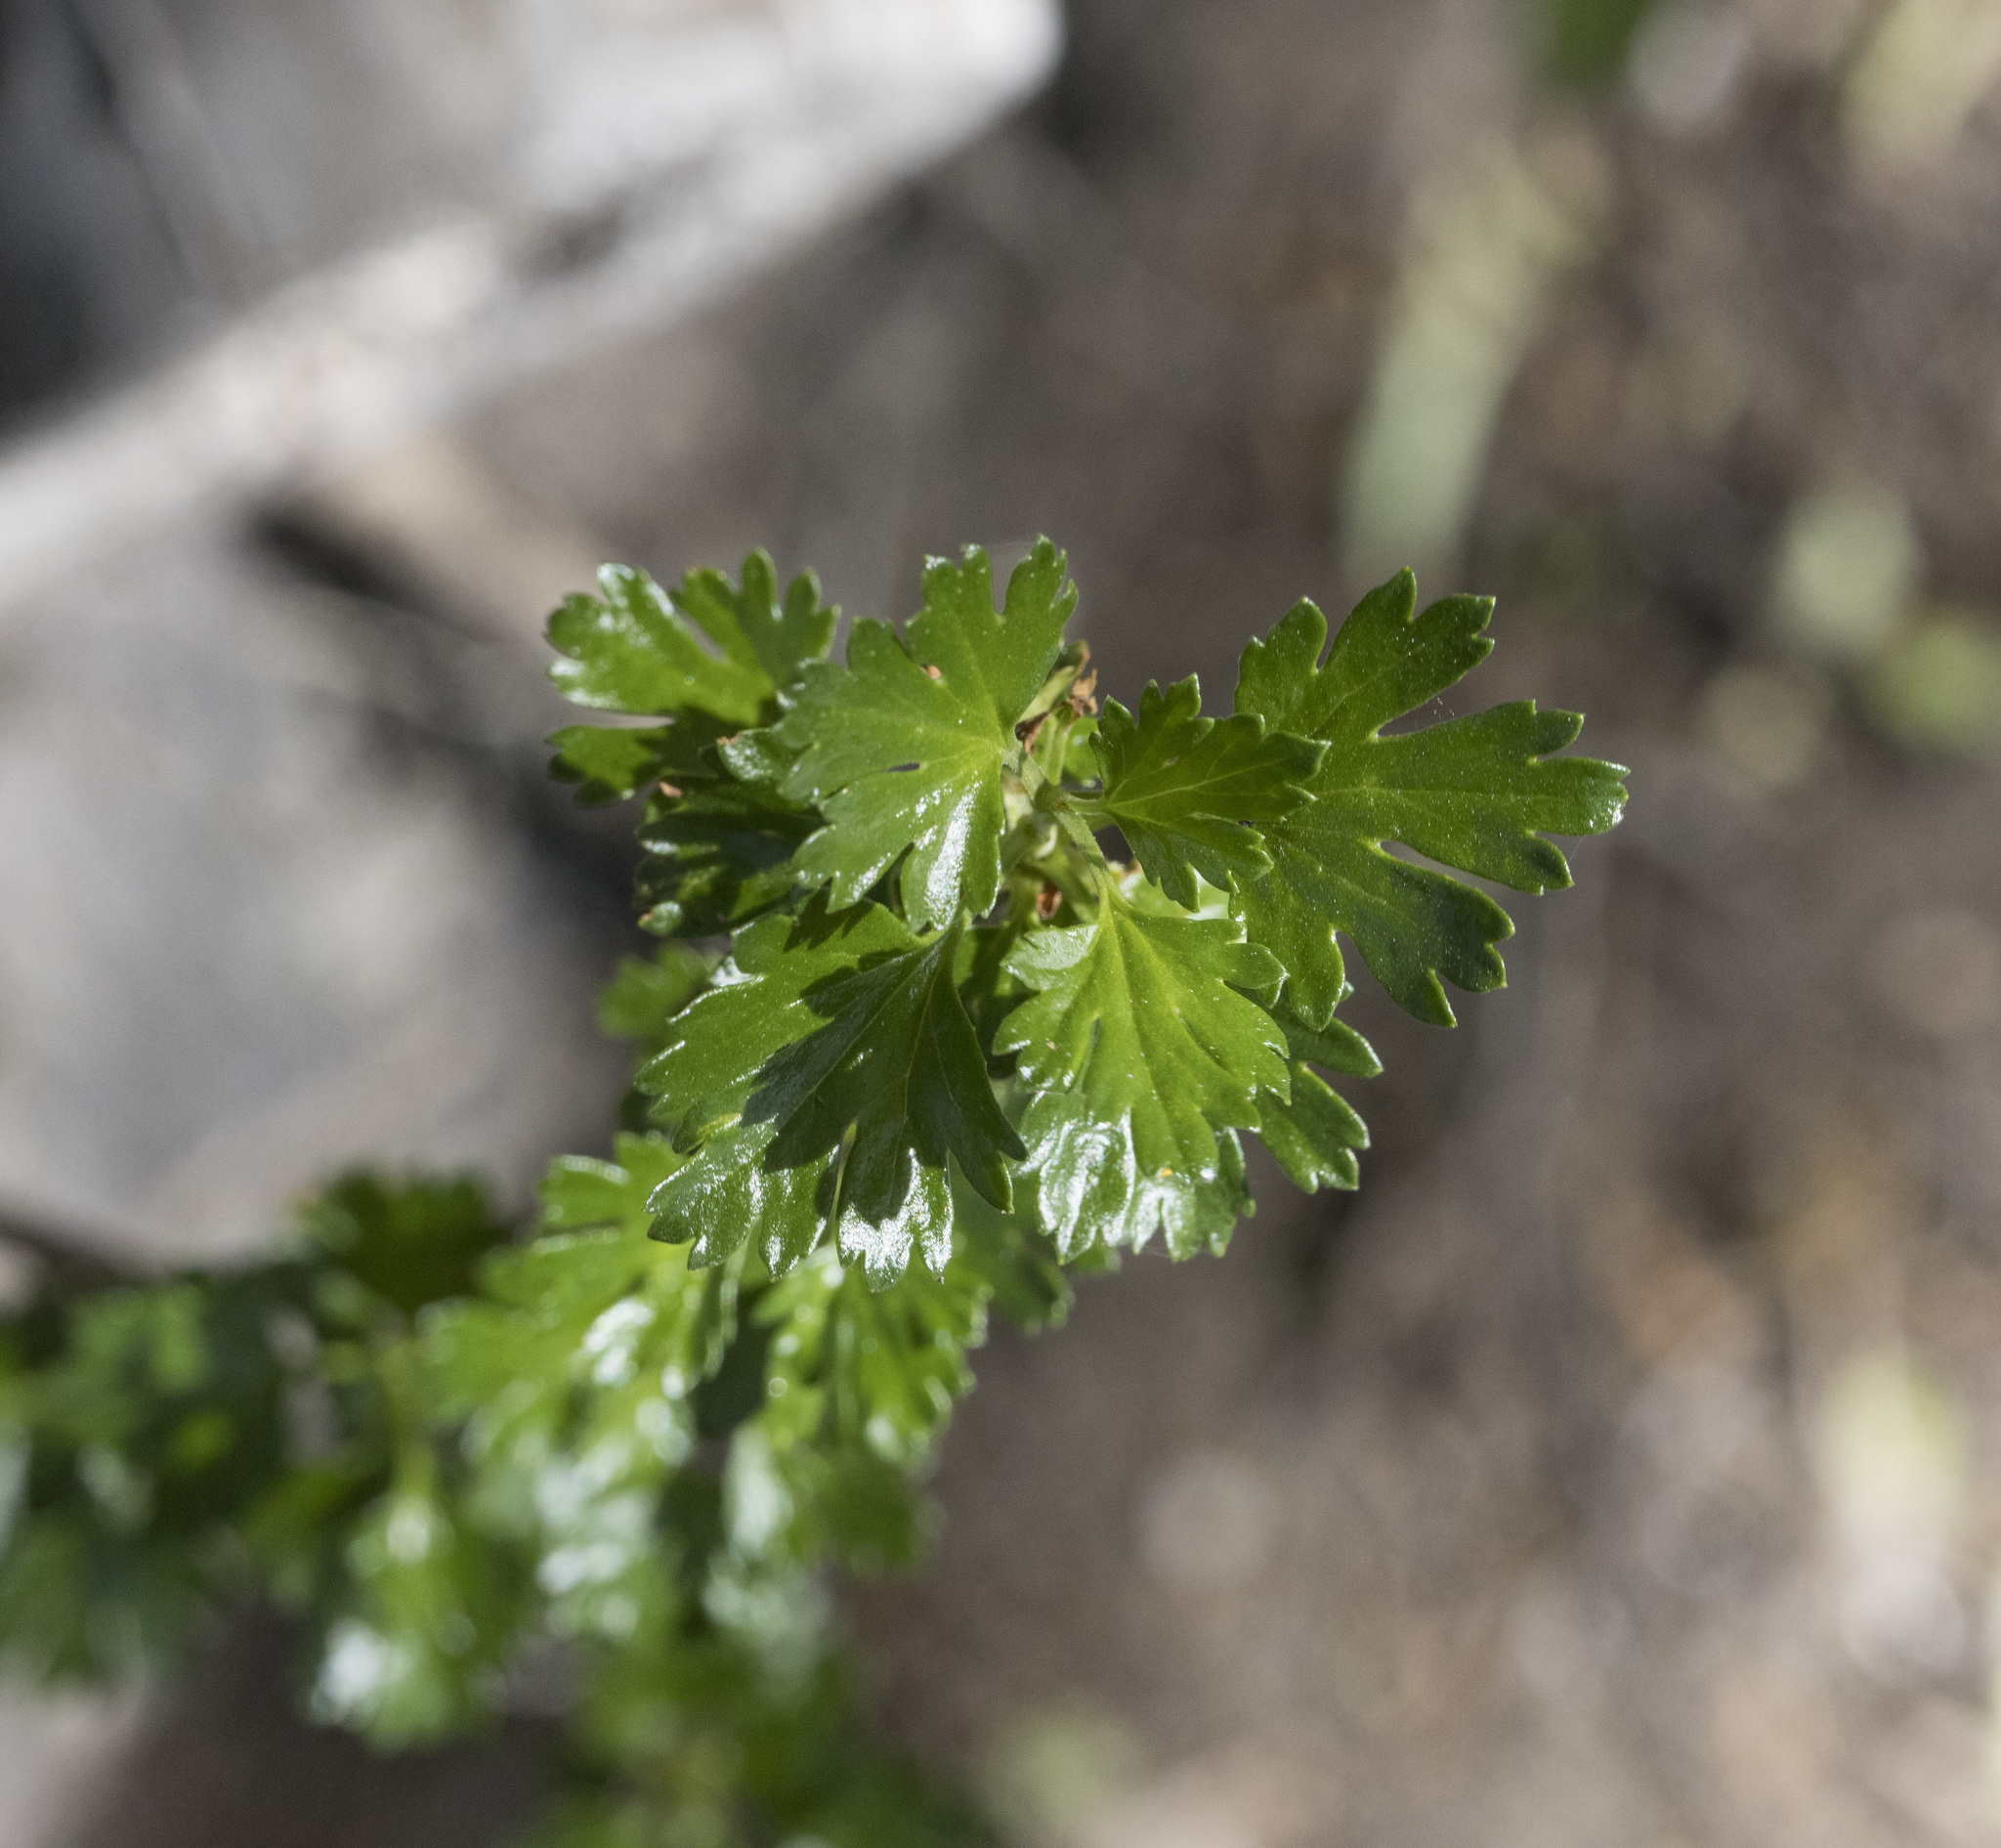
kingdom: Plantae
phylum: Tracheophyta
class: Magnoliopsida
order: Saxifragales
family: Grossulariaceae
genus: Ribes
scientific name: Ribes cucullatum
